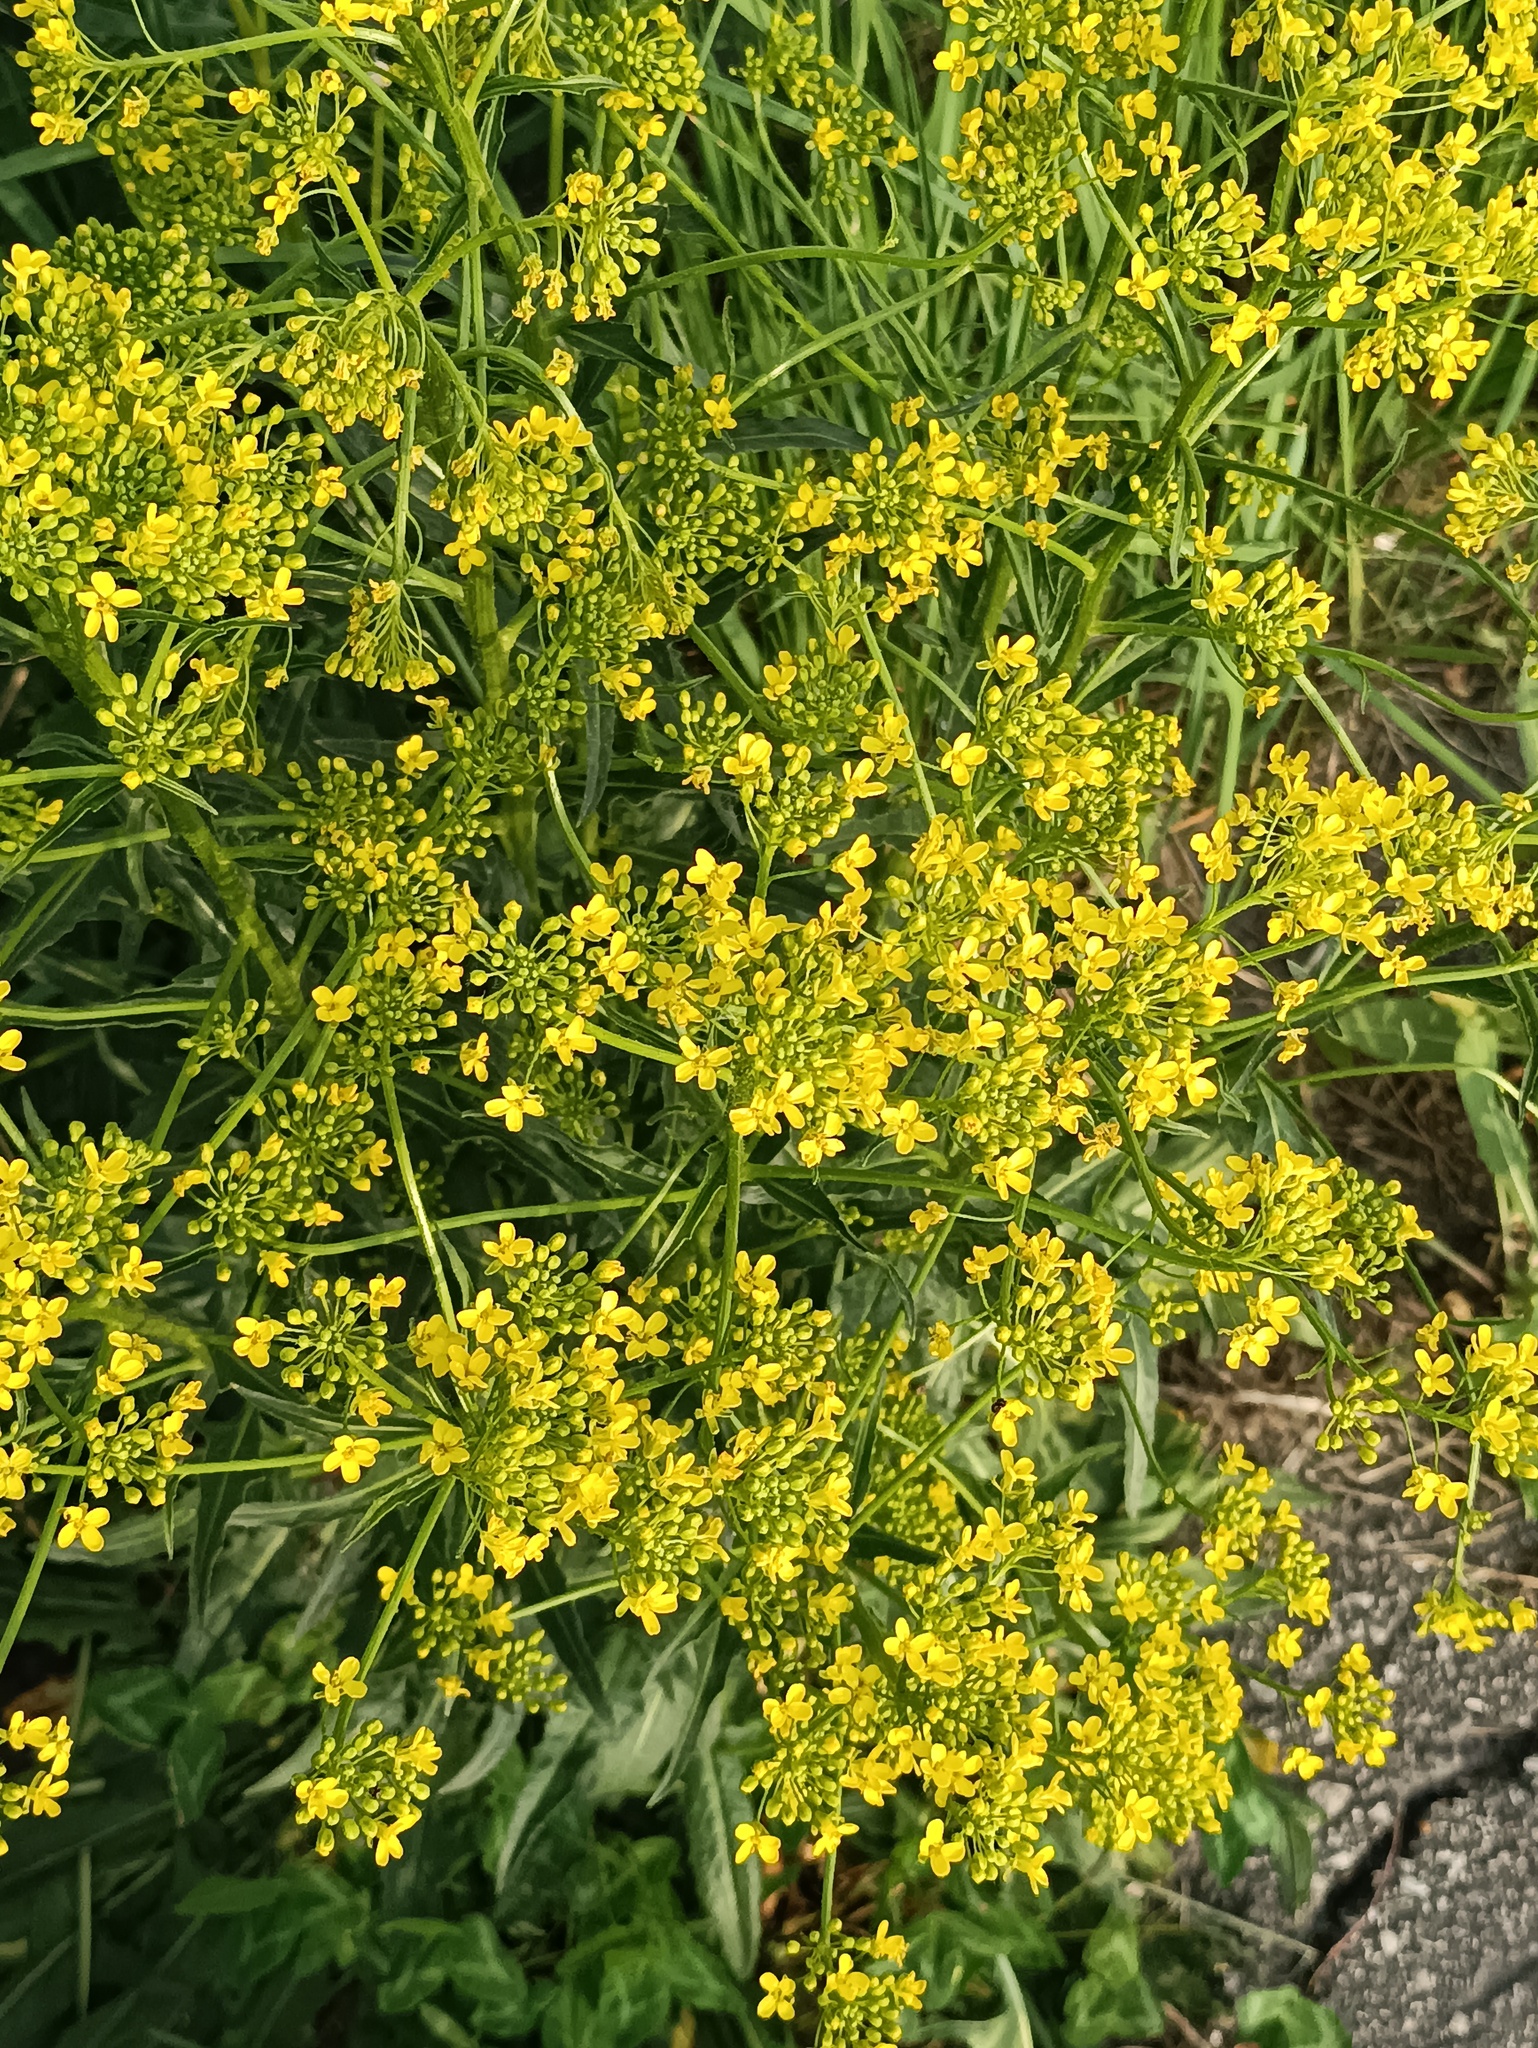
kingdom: Plantae
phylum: Tracheophyta
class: Magnoliopsida
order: Brassicales
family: Brassicaceae
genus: Bunias
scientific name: Bunias orientalis
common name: Warty-cabbage
